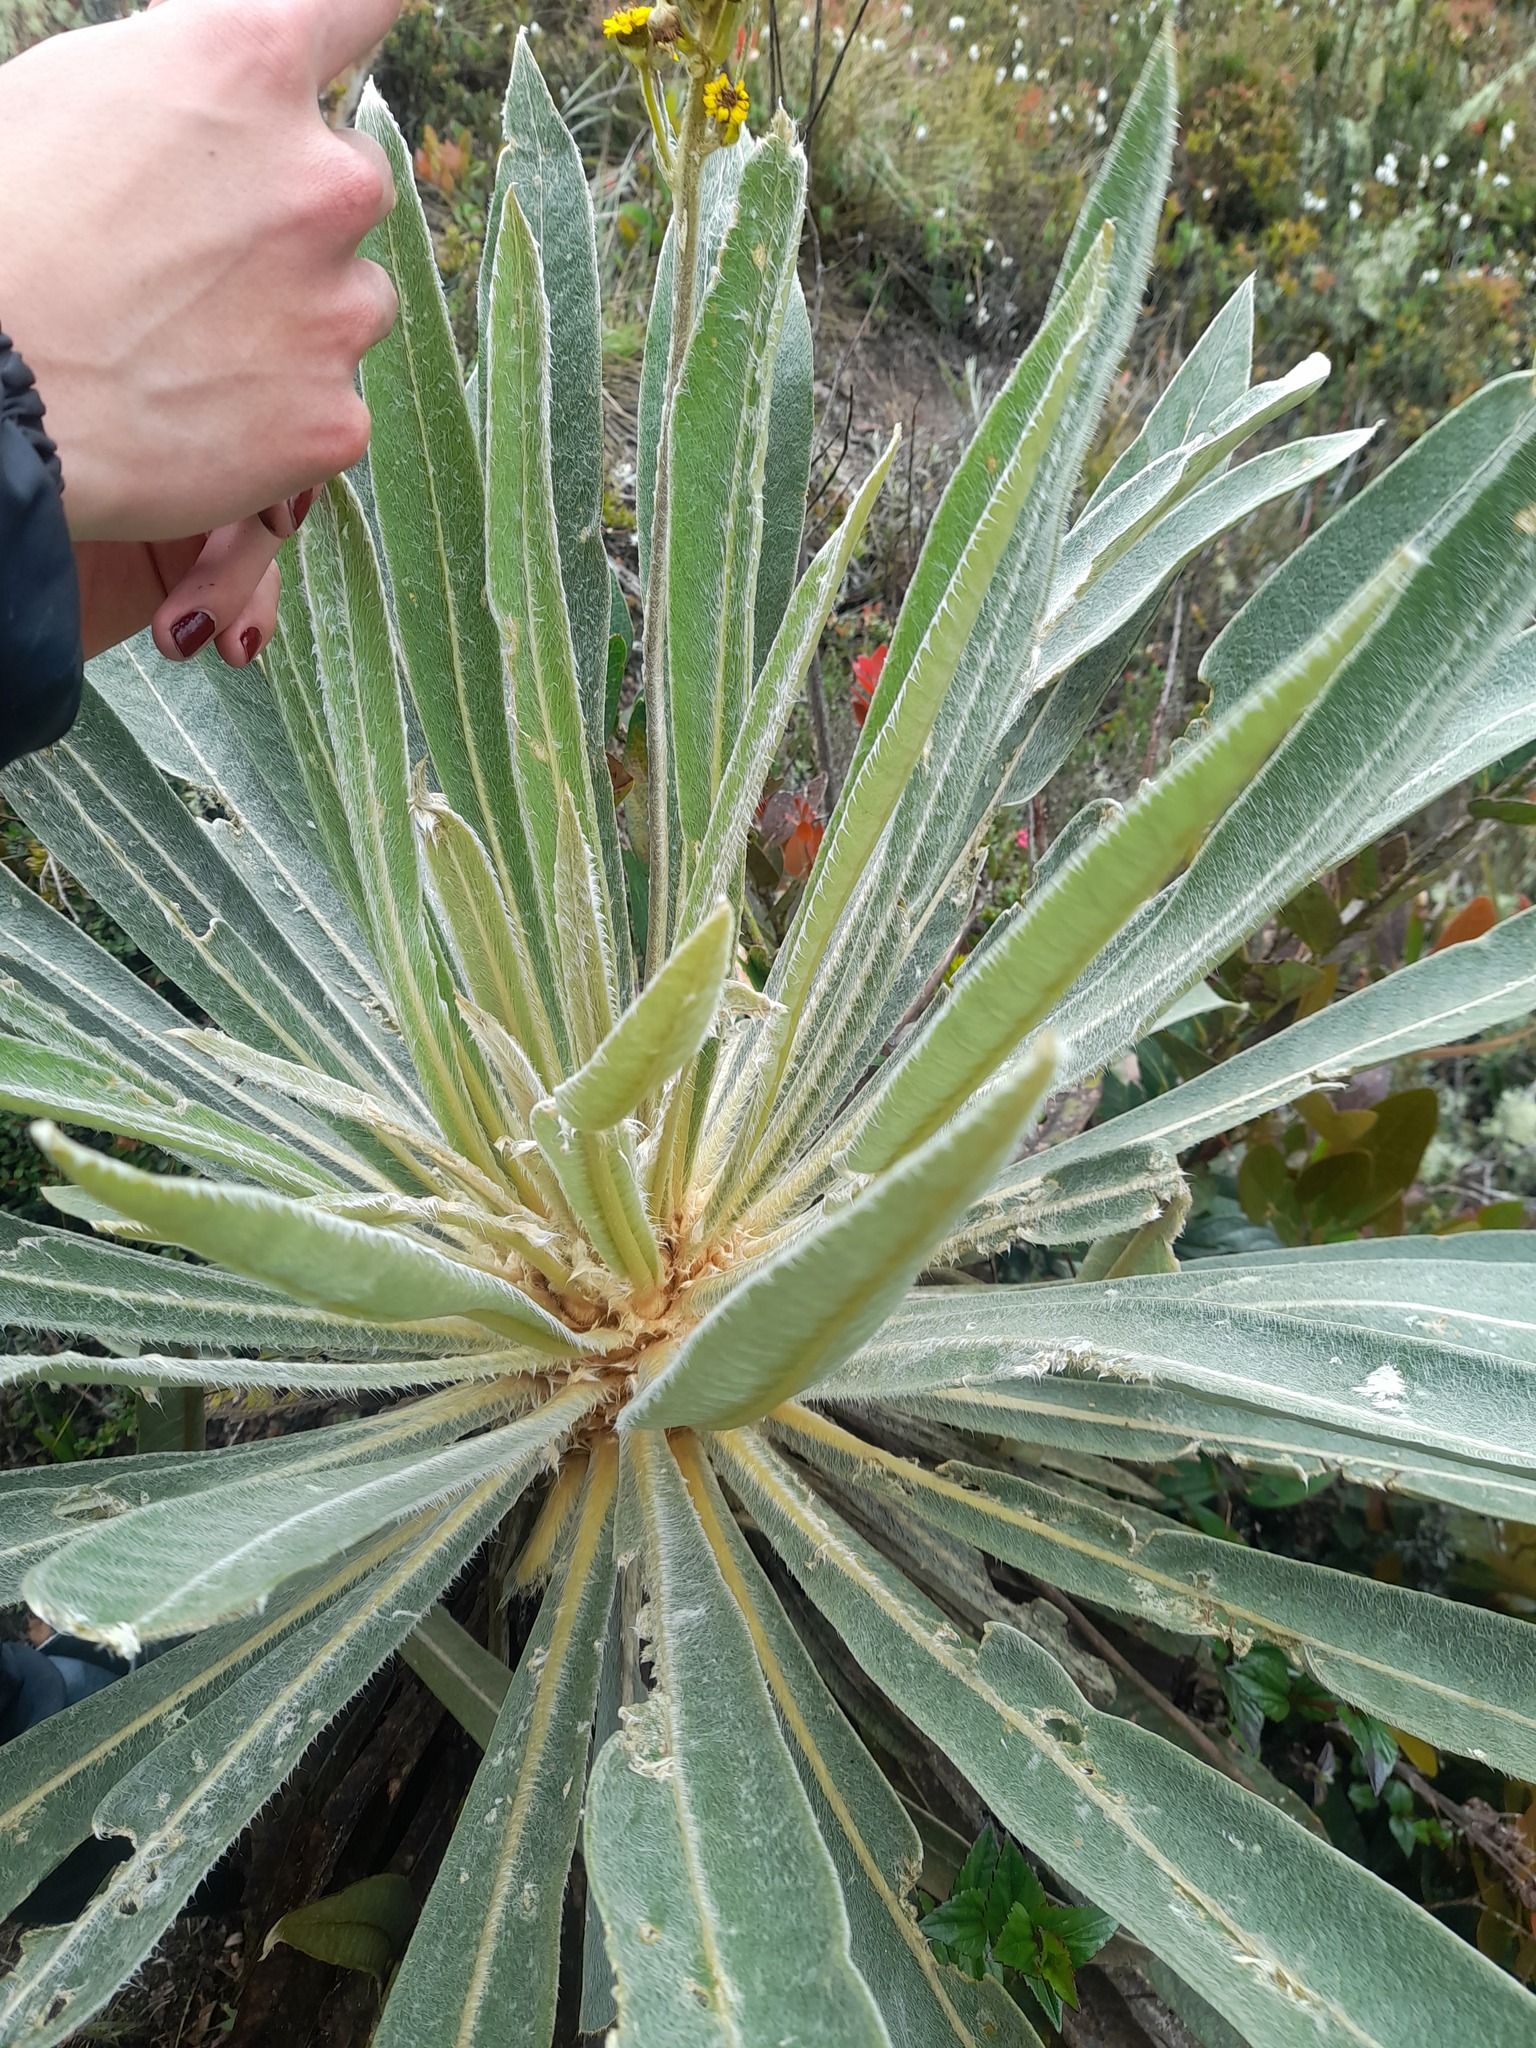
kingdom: Plantae
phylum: Tracheophyta
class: Magnoliopsida
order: Asterales
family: Asteraceae
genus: Espeletia
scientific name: Espeletia corymbosa
